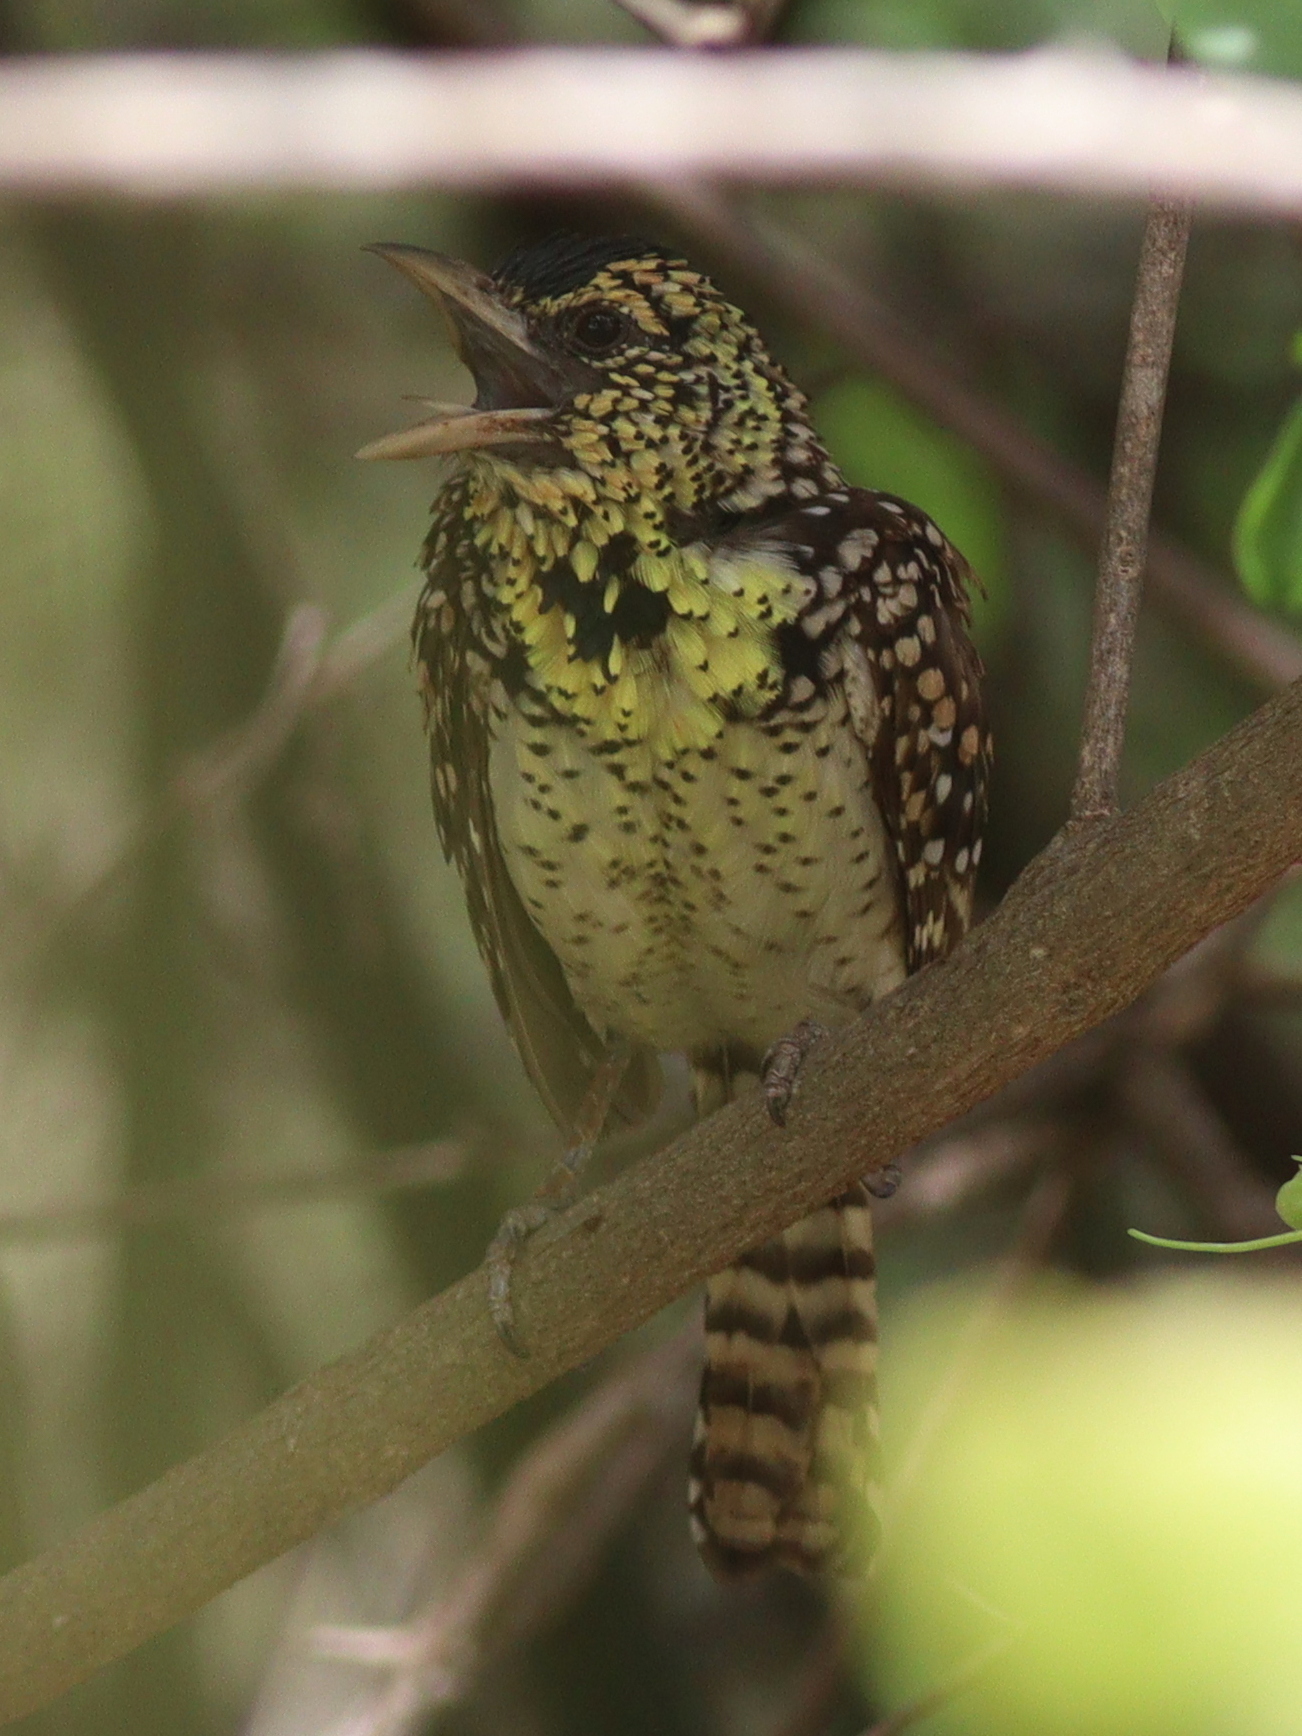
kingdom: Animalia
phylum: Chordata
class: Aves
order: Piciformes
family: Lybiidae
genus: Trachyphonus
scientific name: Trachyphonus darnaudii
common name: D'arnaud's barbet
